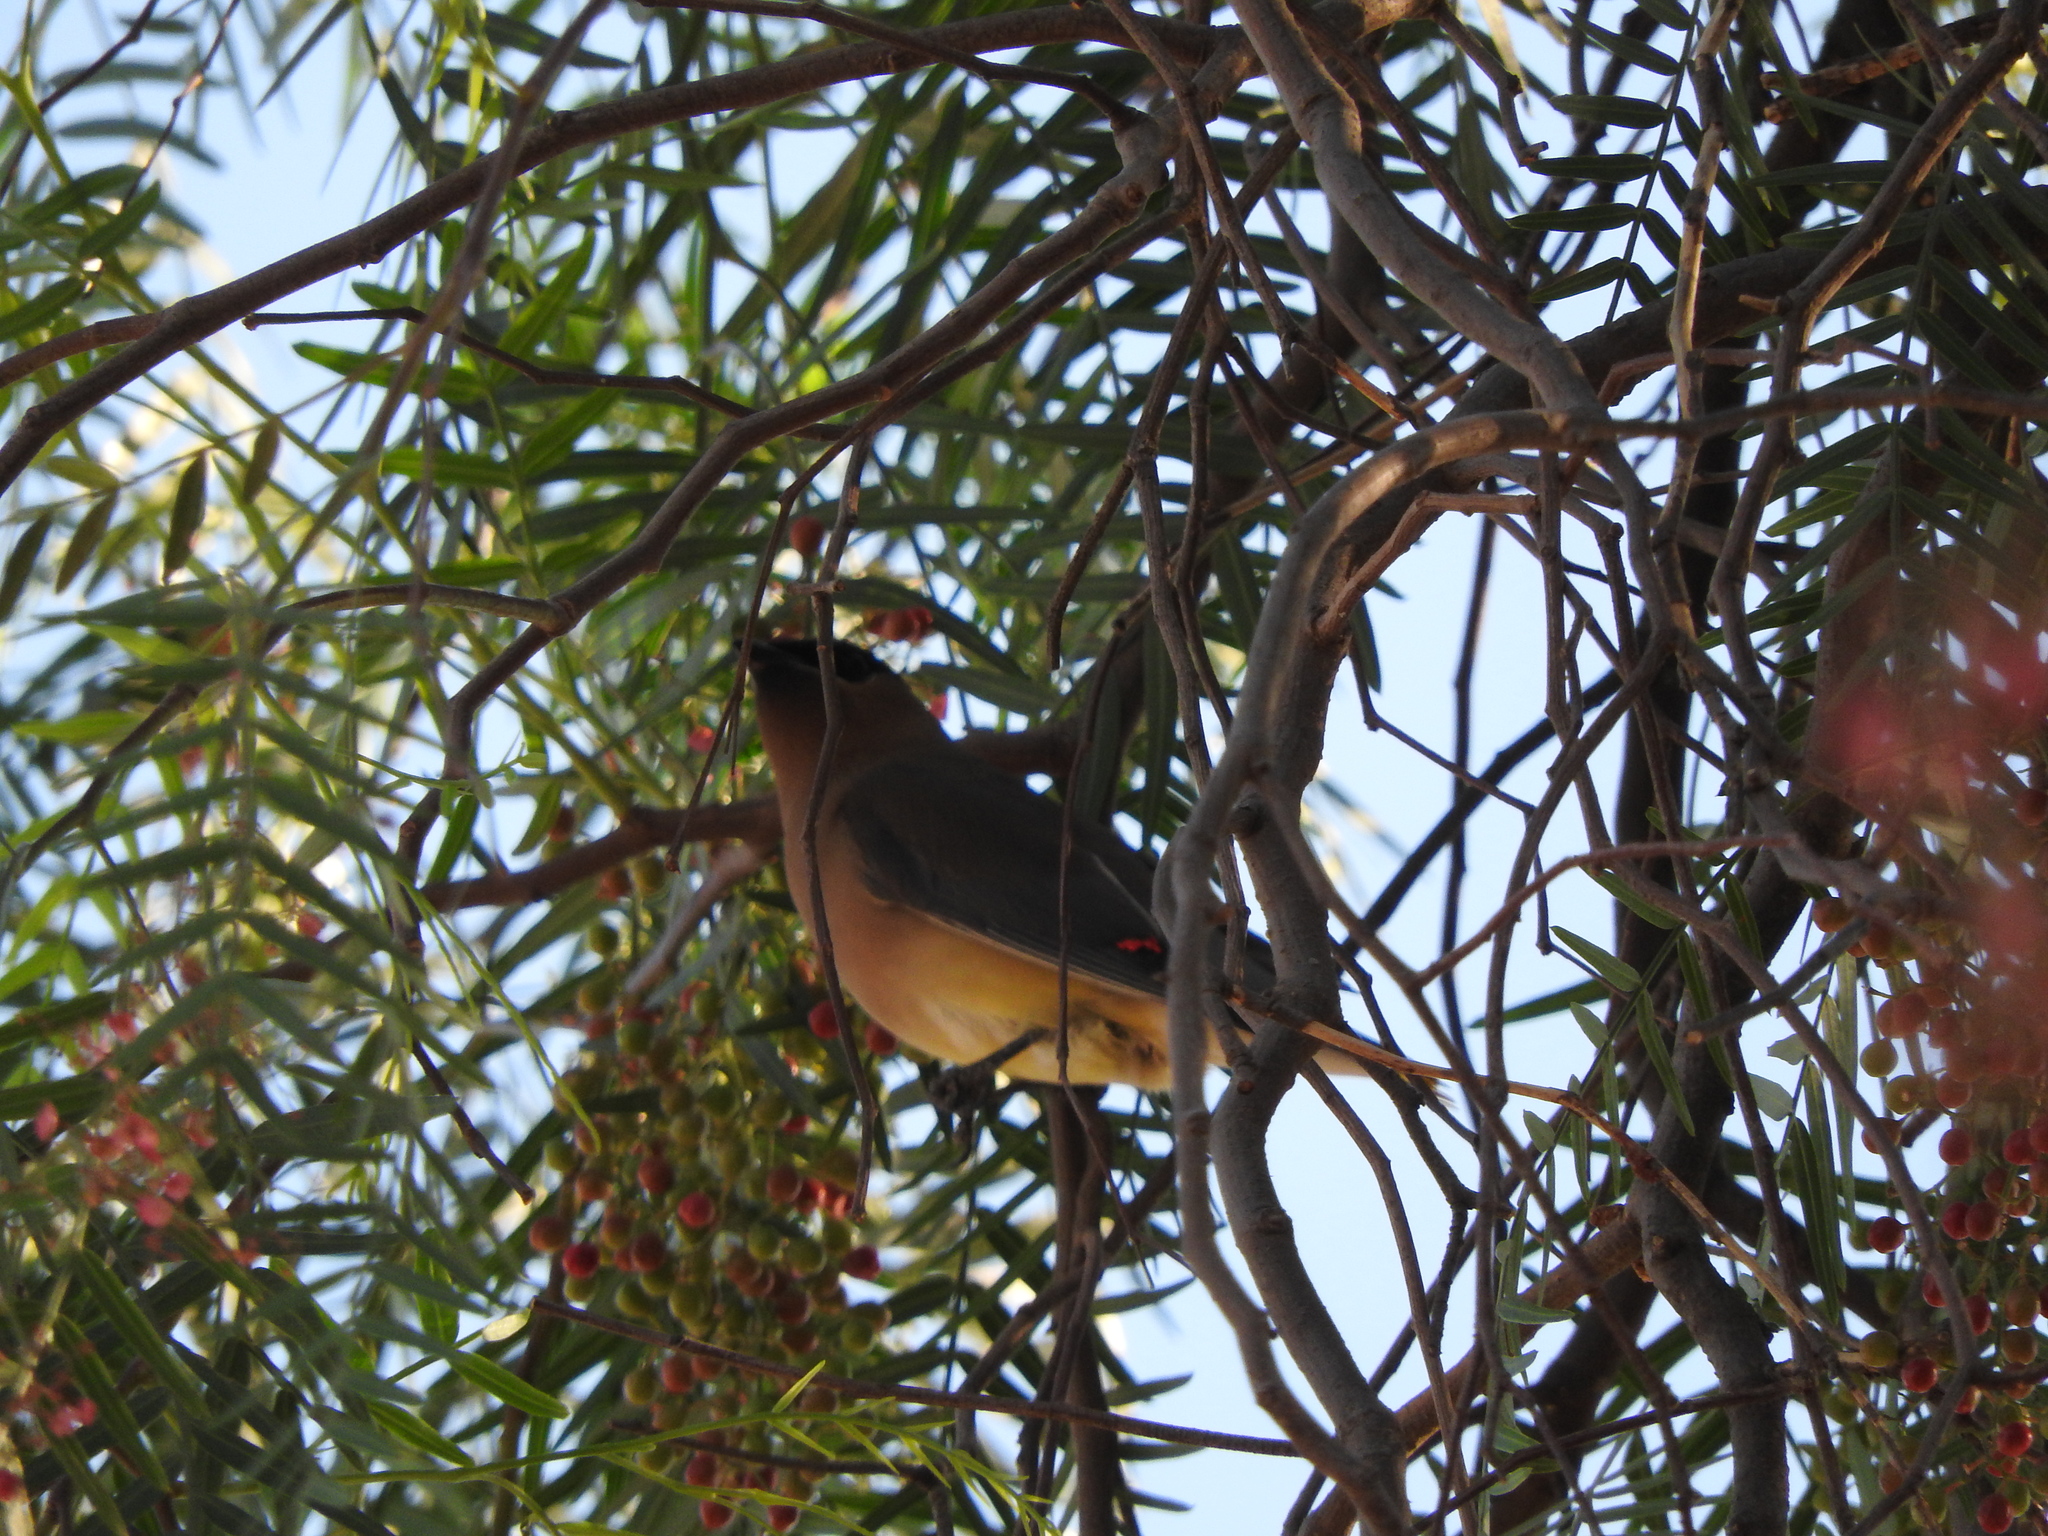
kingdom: Animalia
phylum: Chordata
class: Aves
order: Passeriformes
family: Bombycillidae
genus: Bombycilla
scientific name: Bombycilla cedrorum
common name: Cedar waxwing
